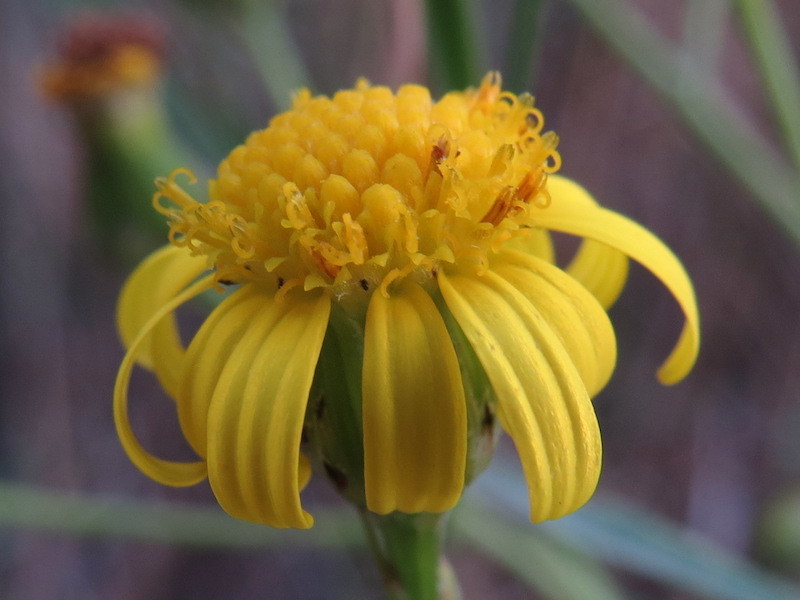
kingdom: Plantae
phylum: Tracheophyta
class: Magnoliopsida
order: Asterales
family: Asteraceae
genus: Senecio
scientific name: Senecio inaequidens
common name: Narrow-leaved ragwort
